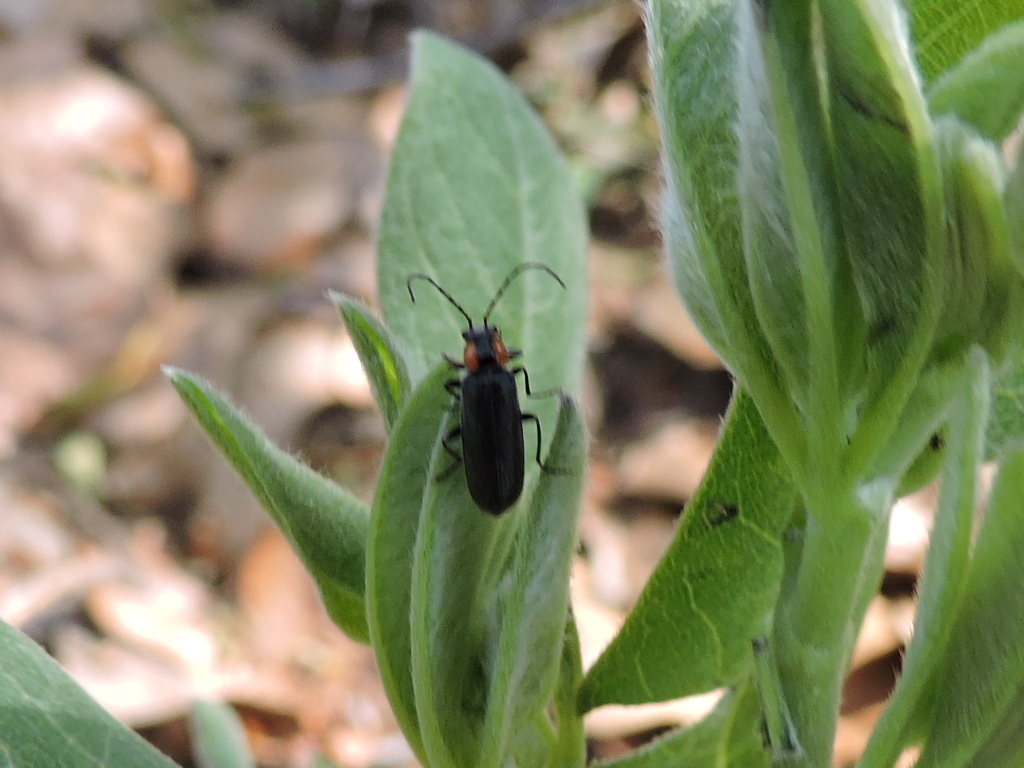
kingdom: Animalia
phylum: Arthropoda
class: Insecta
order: Coleoptera
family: Cantharidae
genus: Rhagonycha
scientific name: Rhagonycha lineola
